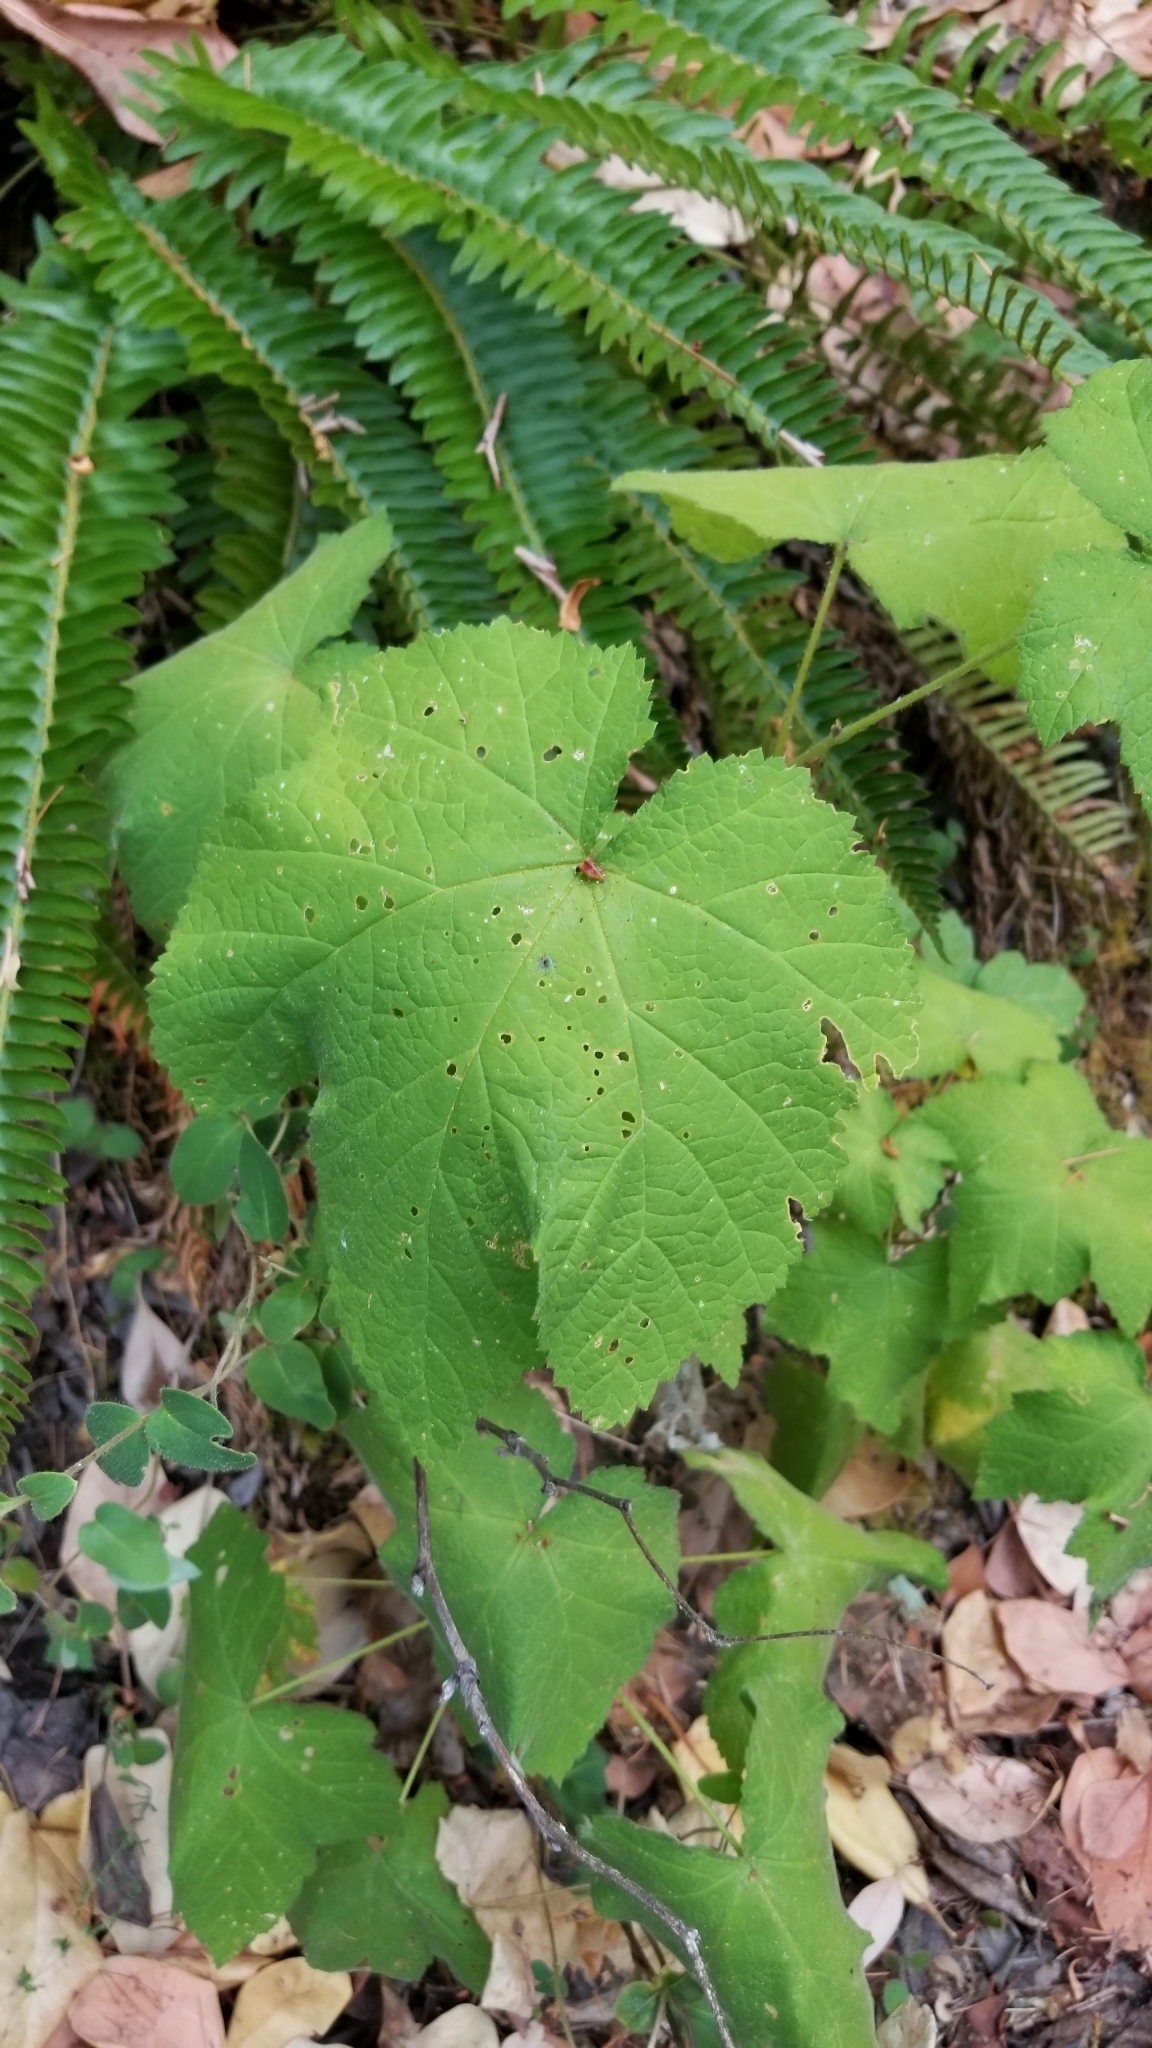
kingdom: Plantae
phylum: Tracheophyta
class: Magnoliopsida
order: Rosales
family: Rosaceae
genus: Rubus
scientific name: Rubus parviflorus
